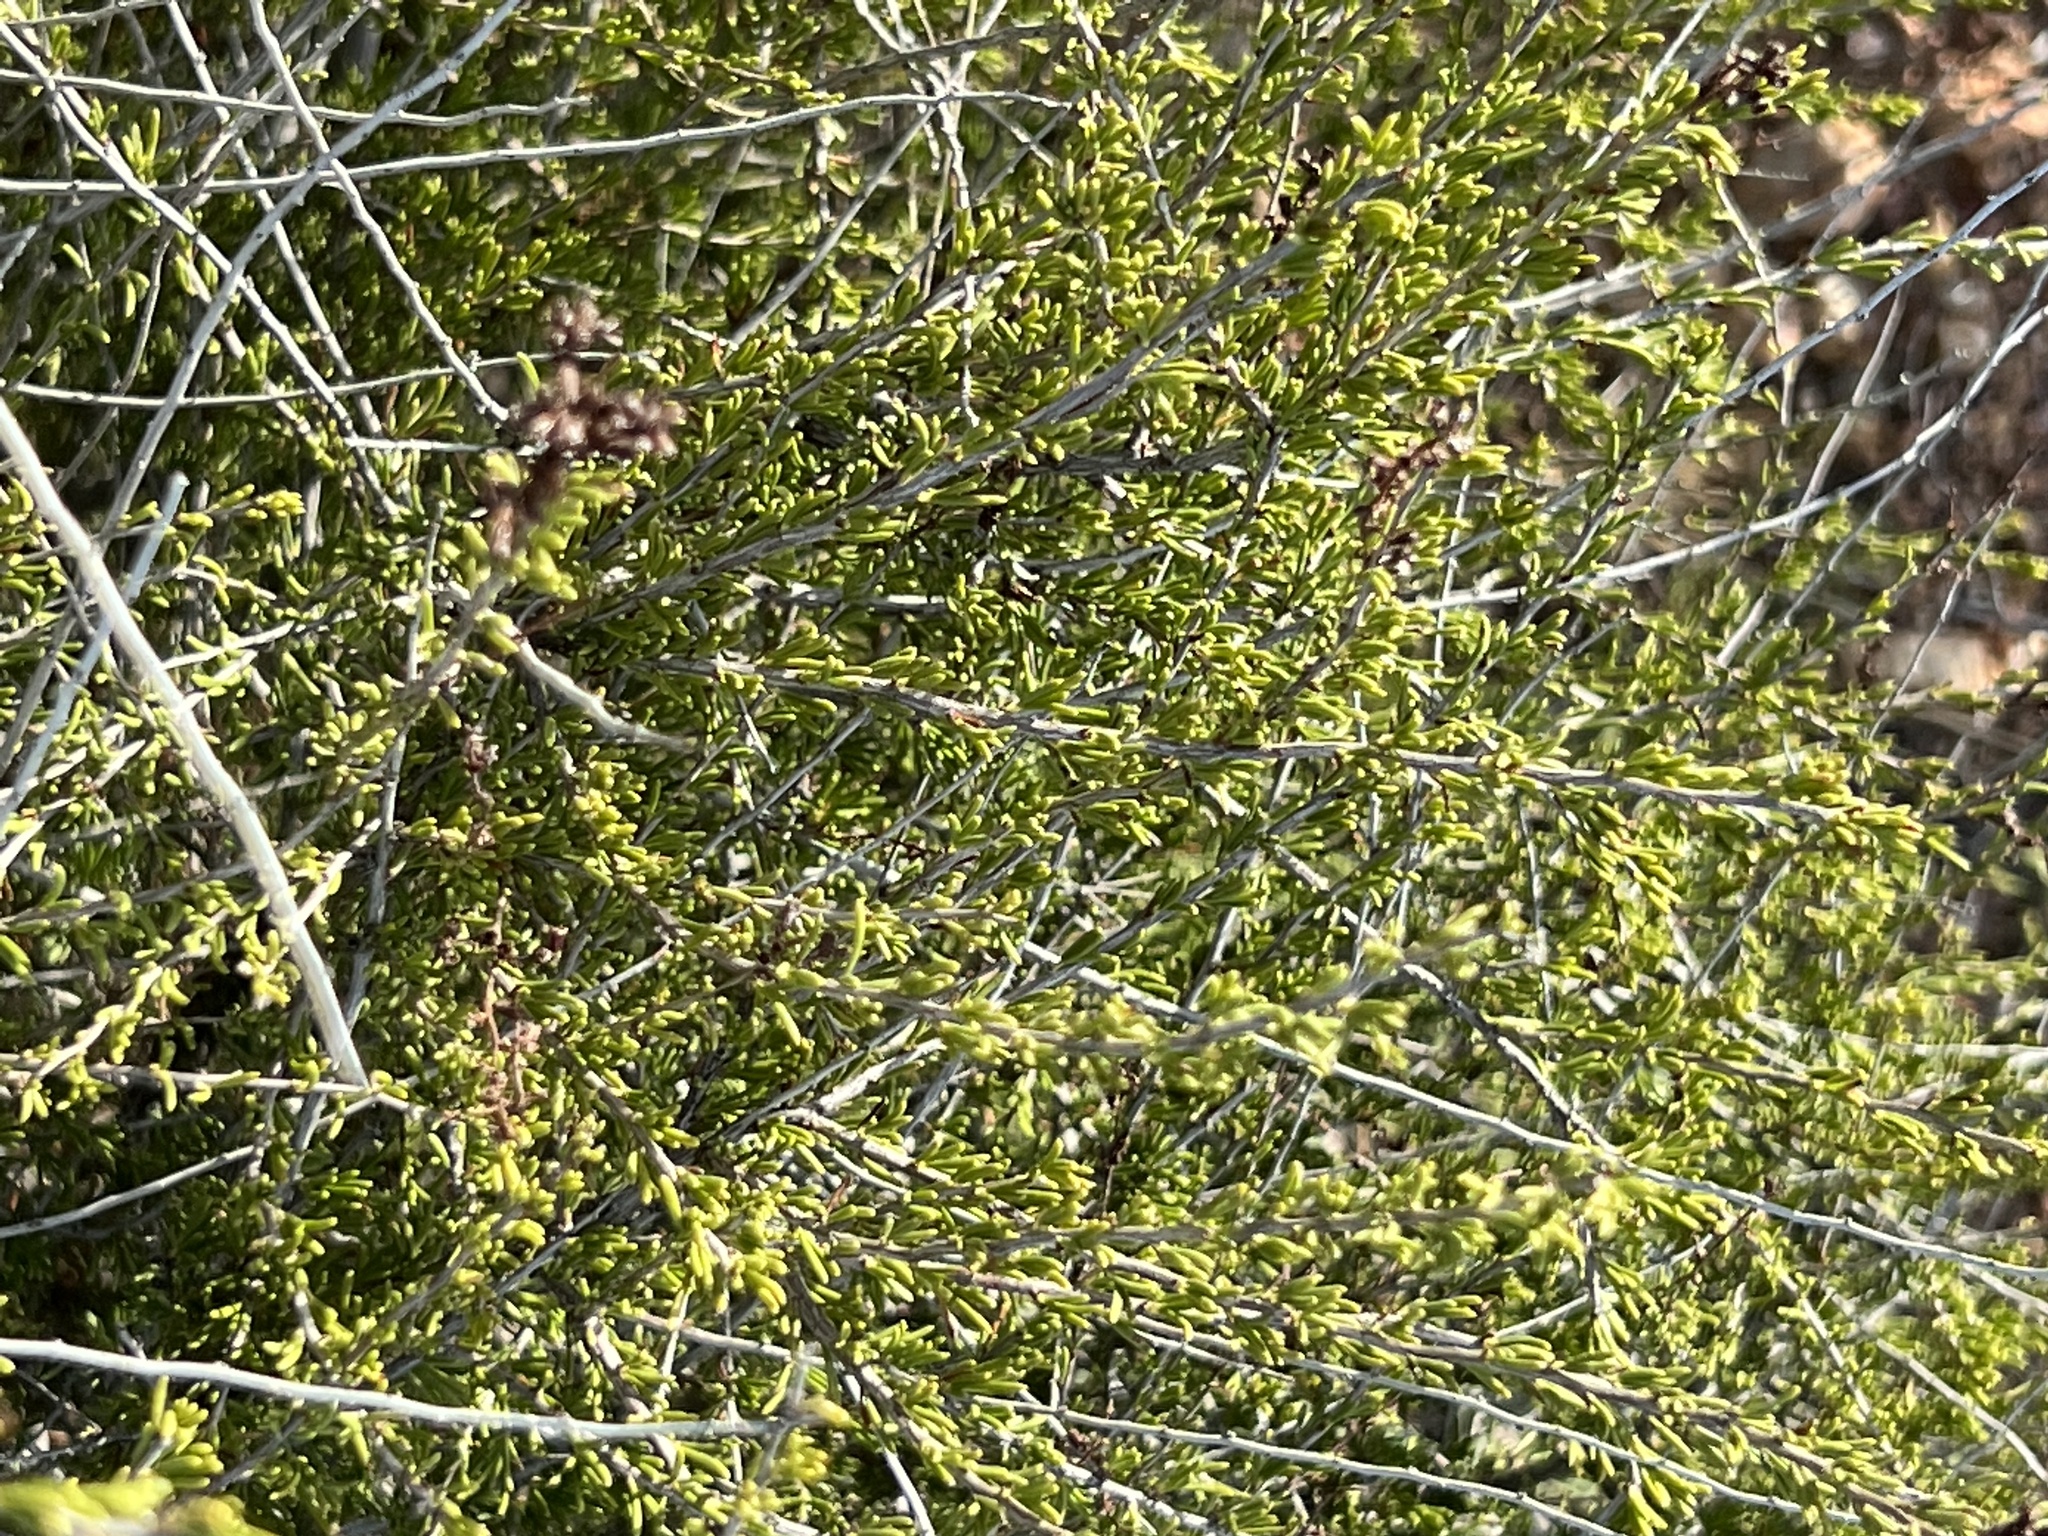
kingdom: Plantae
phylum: Tracheophyta
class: Magnoliopsida
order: Rosales
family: Rosaceae
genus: Adenostoma
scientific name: Adenostoma fasciculatum
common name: Chamise
